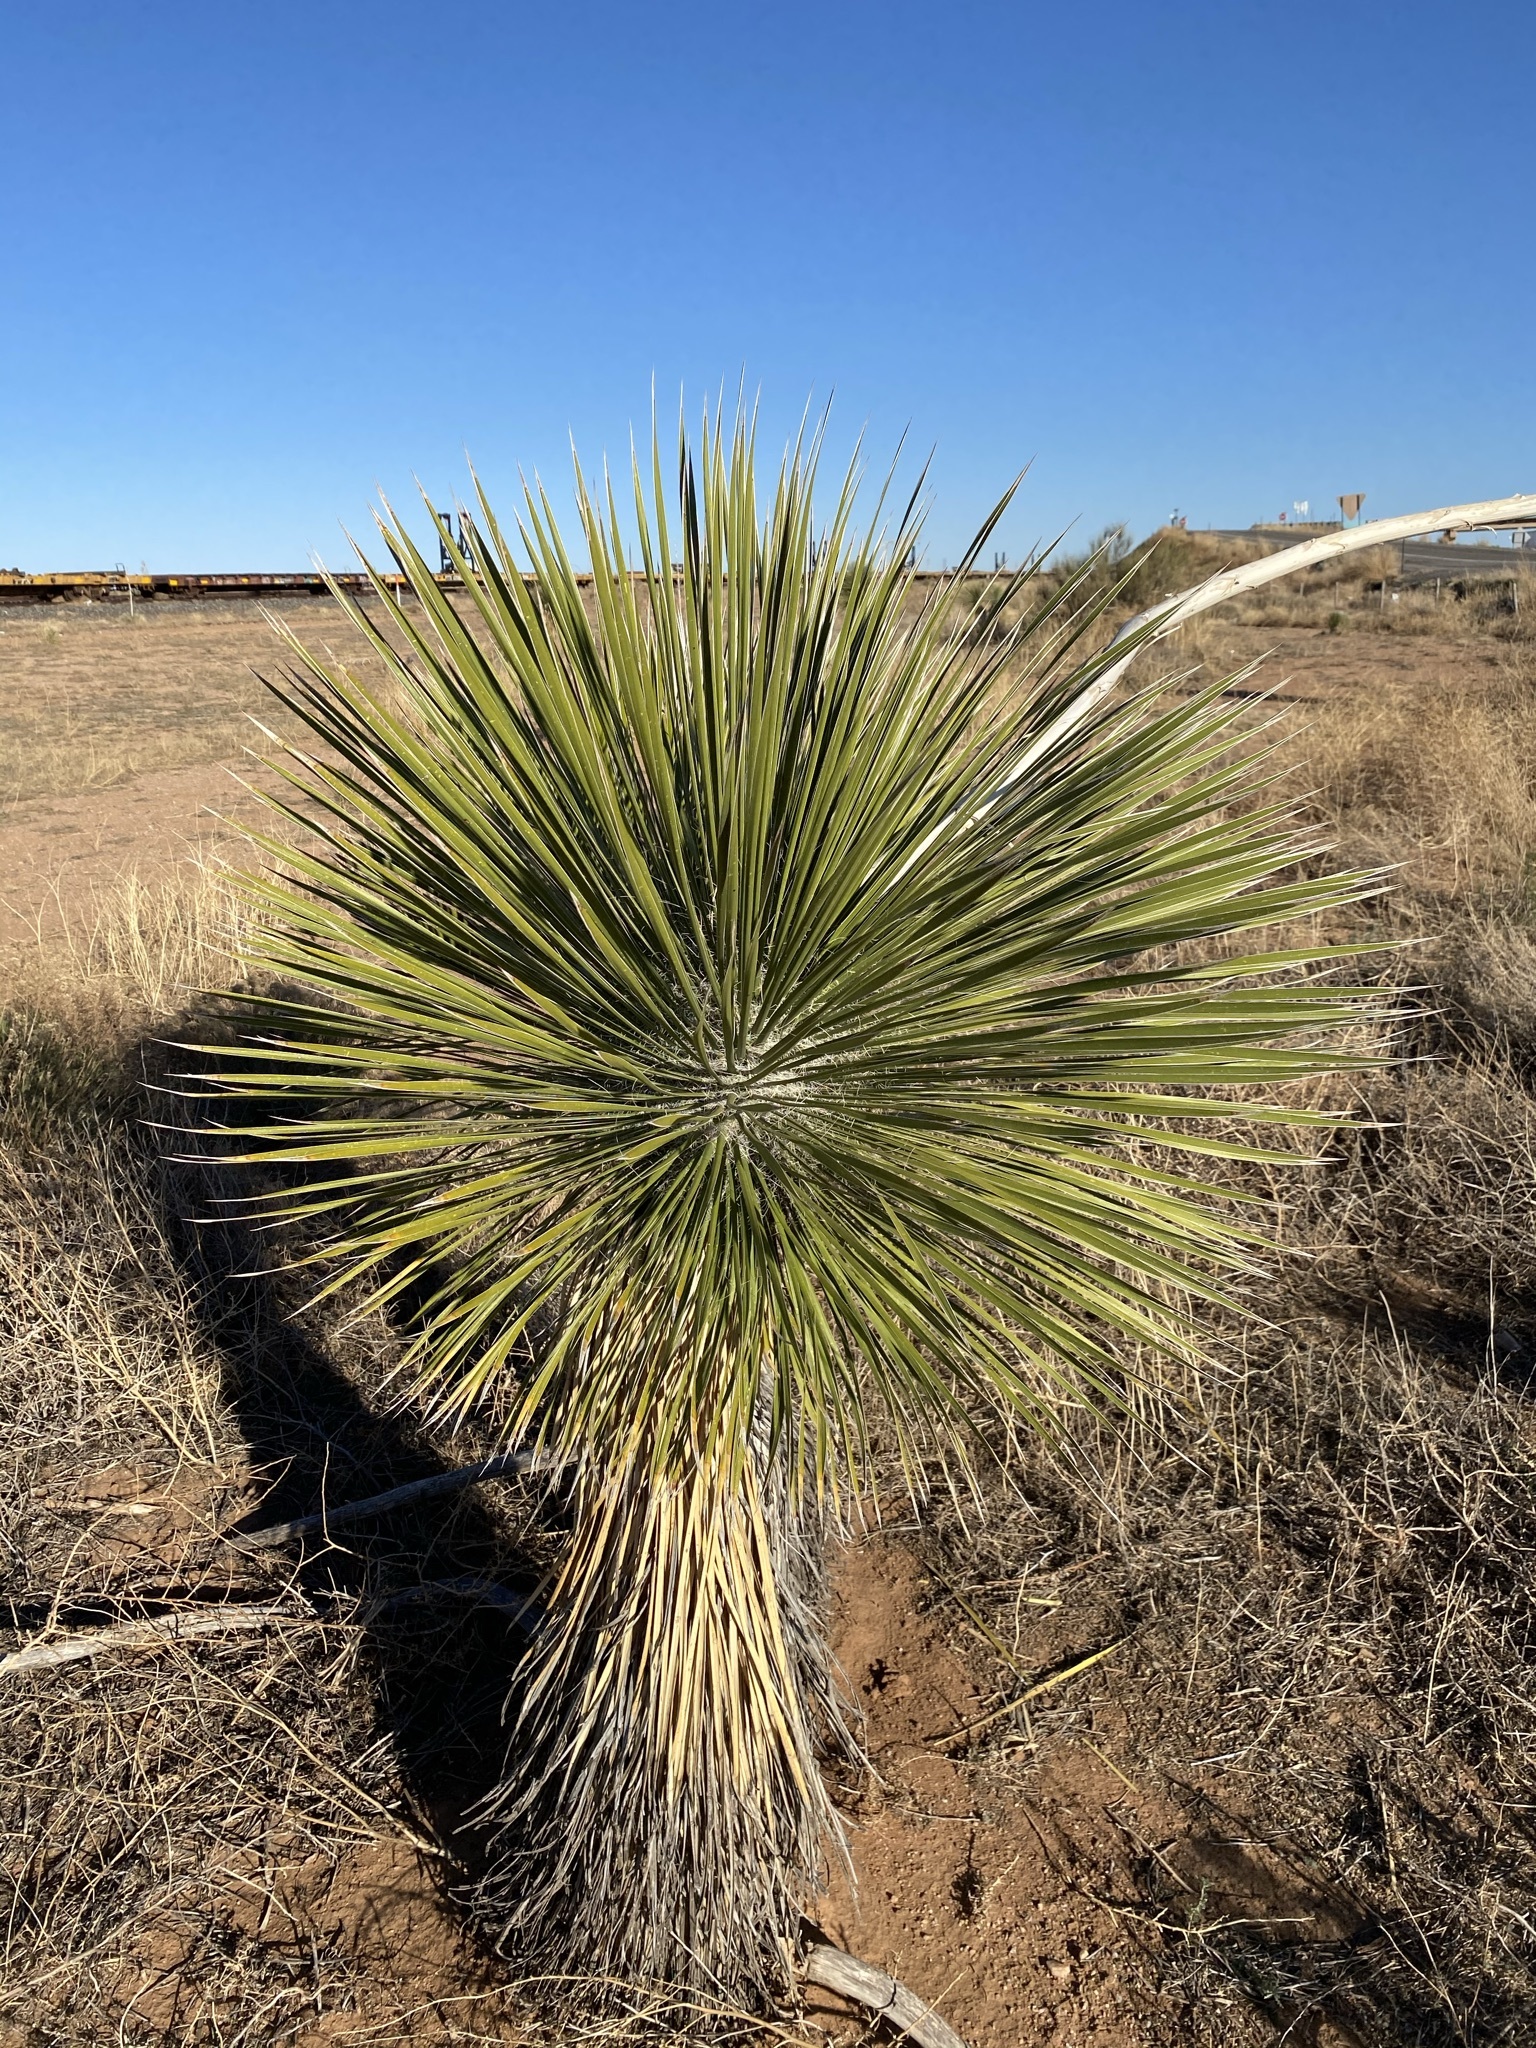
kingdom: Plantae
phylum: Tracheophyta
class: Liliopsida
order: Asparagales
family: Asparagaceae
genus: Yucca
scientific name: Yucca elata
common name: Palmella
